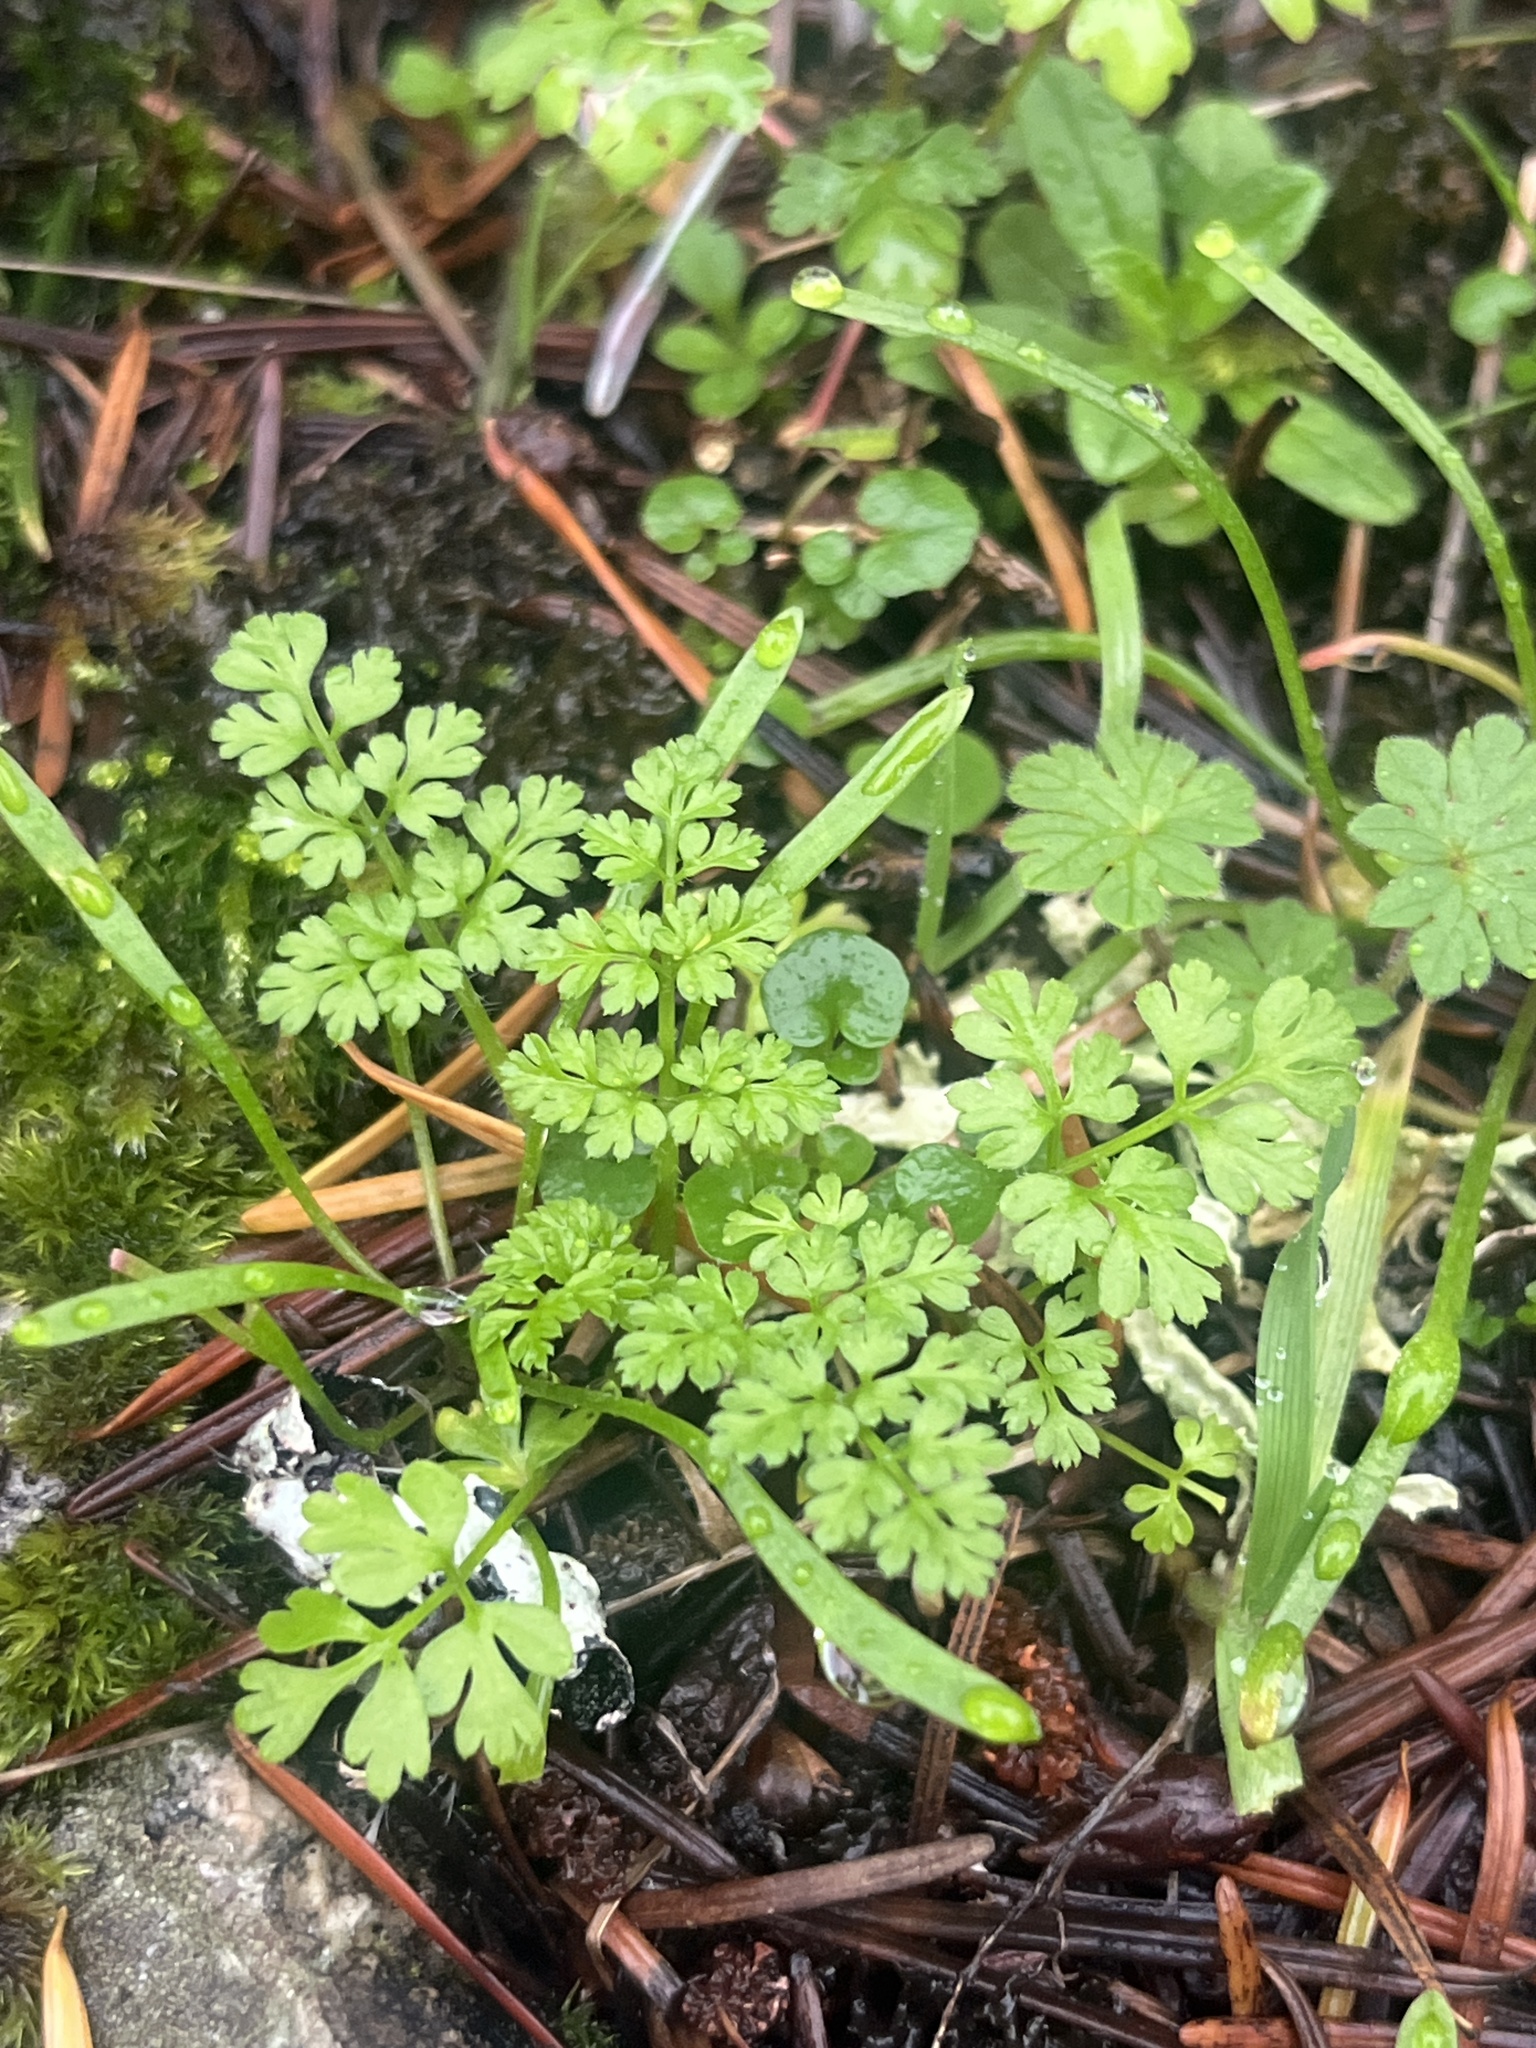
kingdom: Plantae
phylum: Tracheophyta
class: Magnoliopsida
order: Apiales
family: Apiaceae
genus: Anthriscus
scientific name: Anthriscus caucalis
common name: Bur chervil
